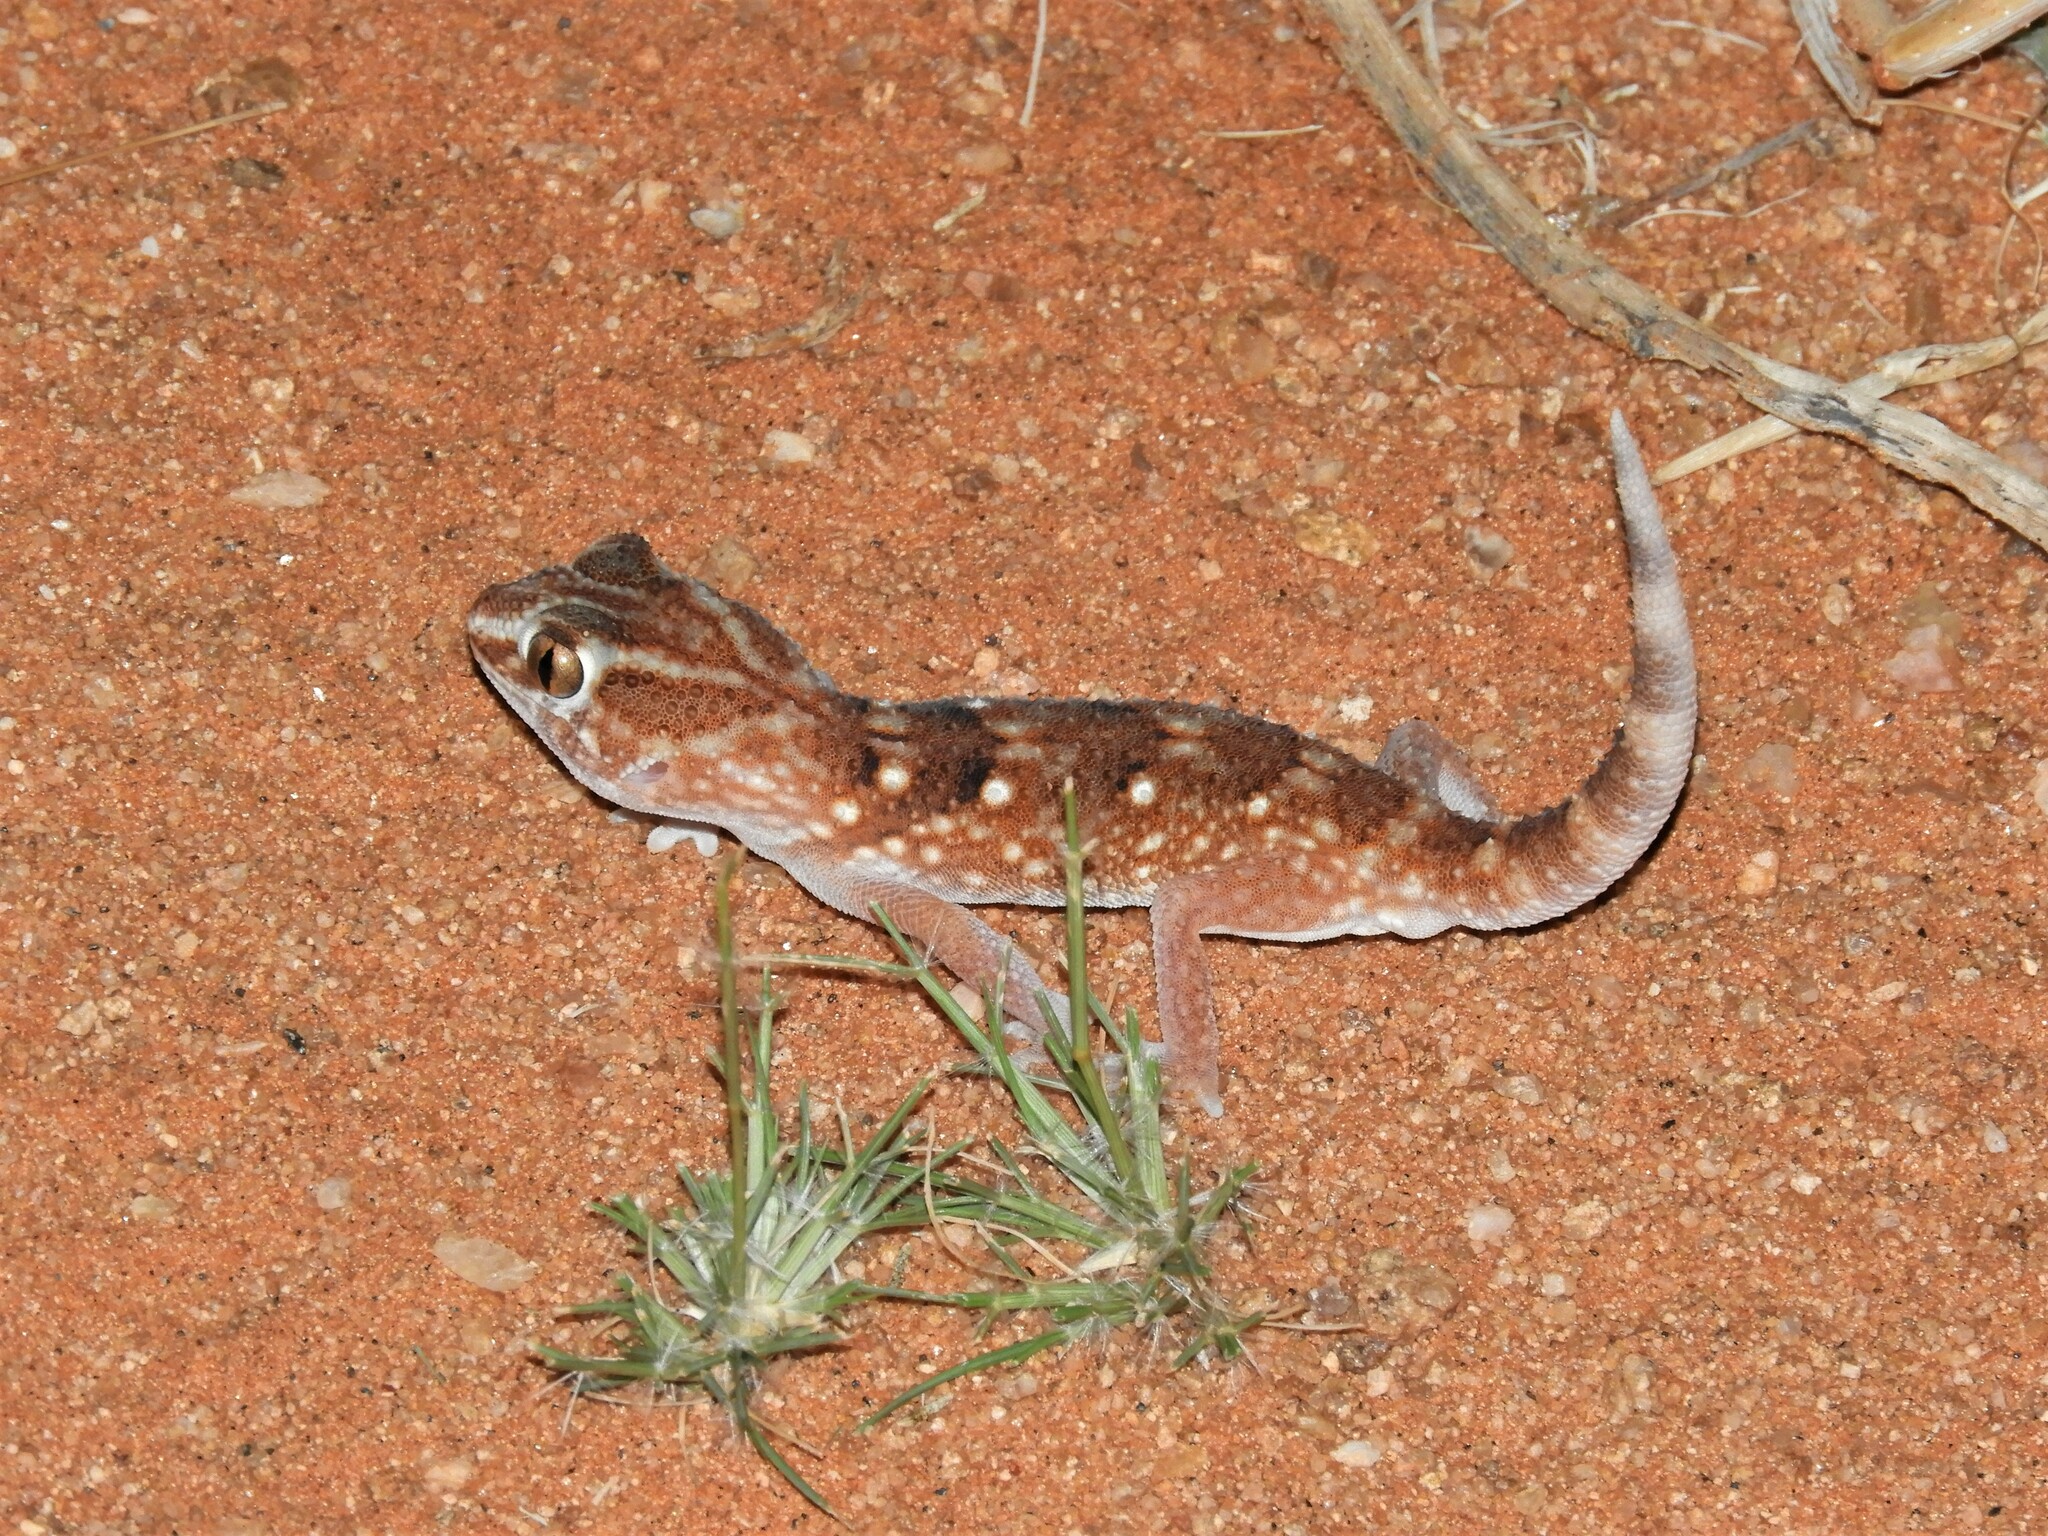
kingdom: Animalia
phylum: Chordata
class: Squamata
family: Gekkonidae
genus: Chondrodactylus
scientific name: Chondrodactylus angulifer
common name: Common giant ground gecko
